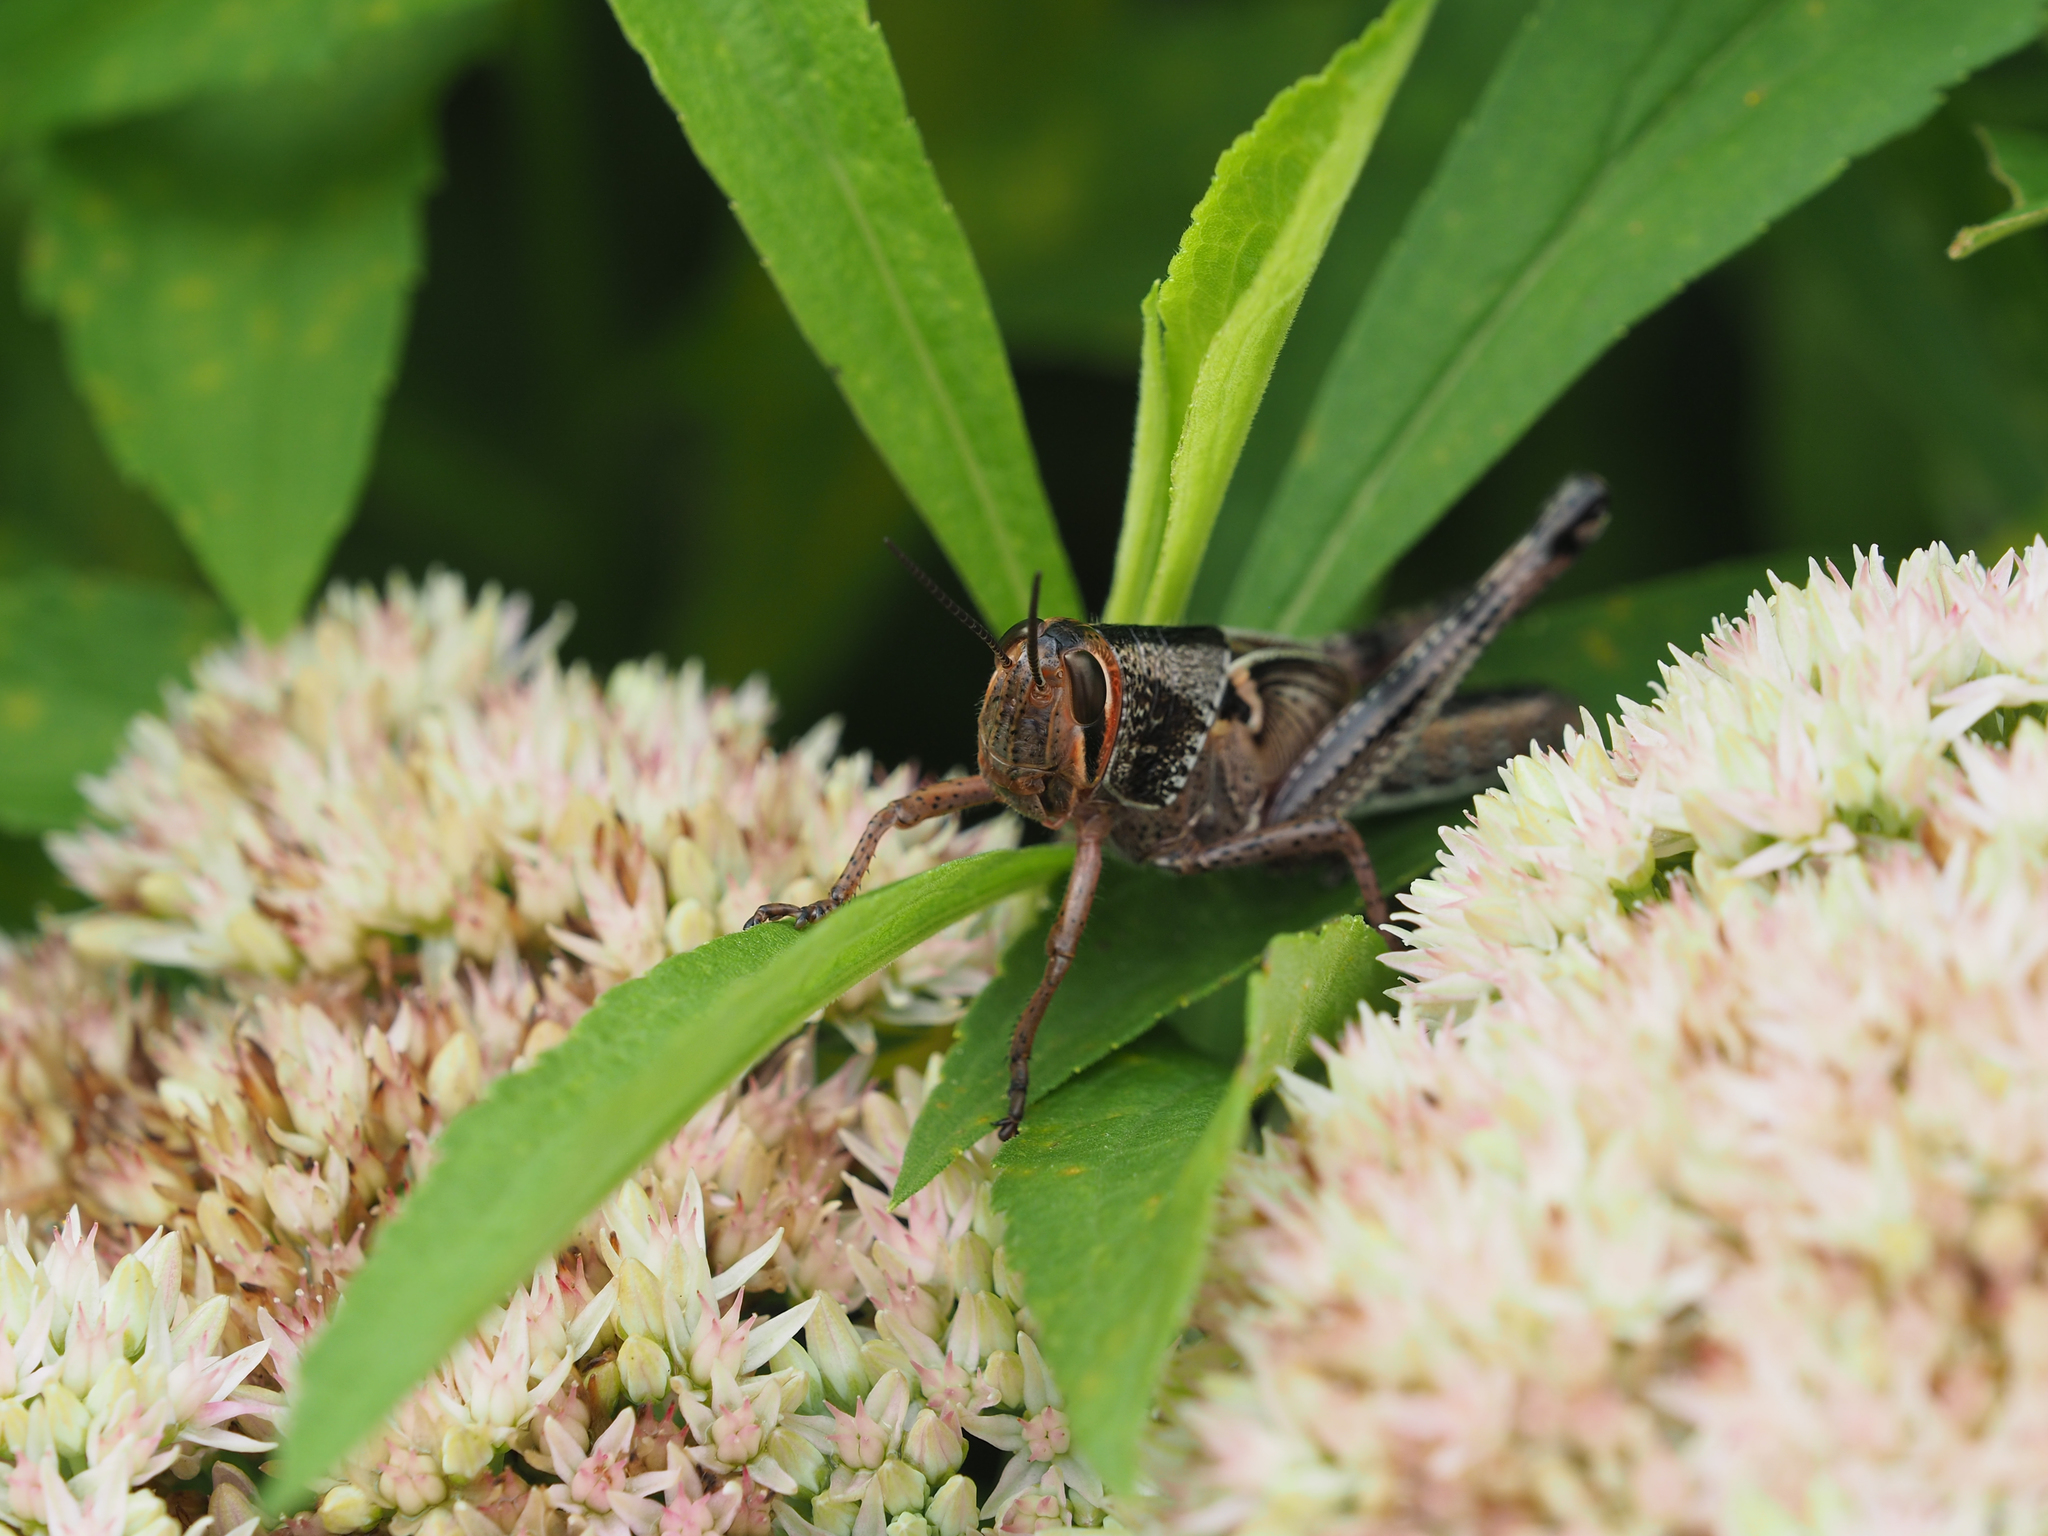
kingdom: Animalia
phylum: Arthropoda
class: Insecta
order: Orthoptera
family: Acrididae
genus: Schistocerca
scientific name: Schistocerca americana
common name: American bird locust
